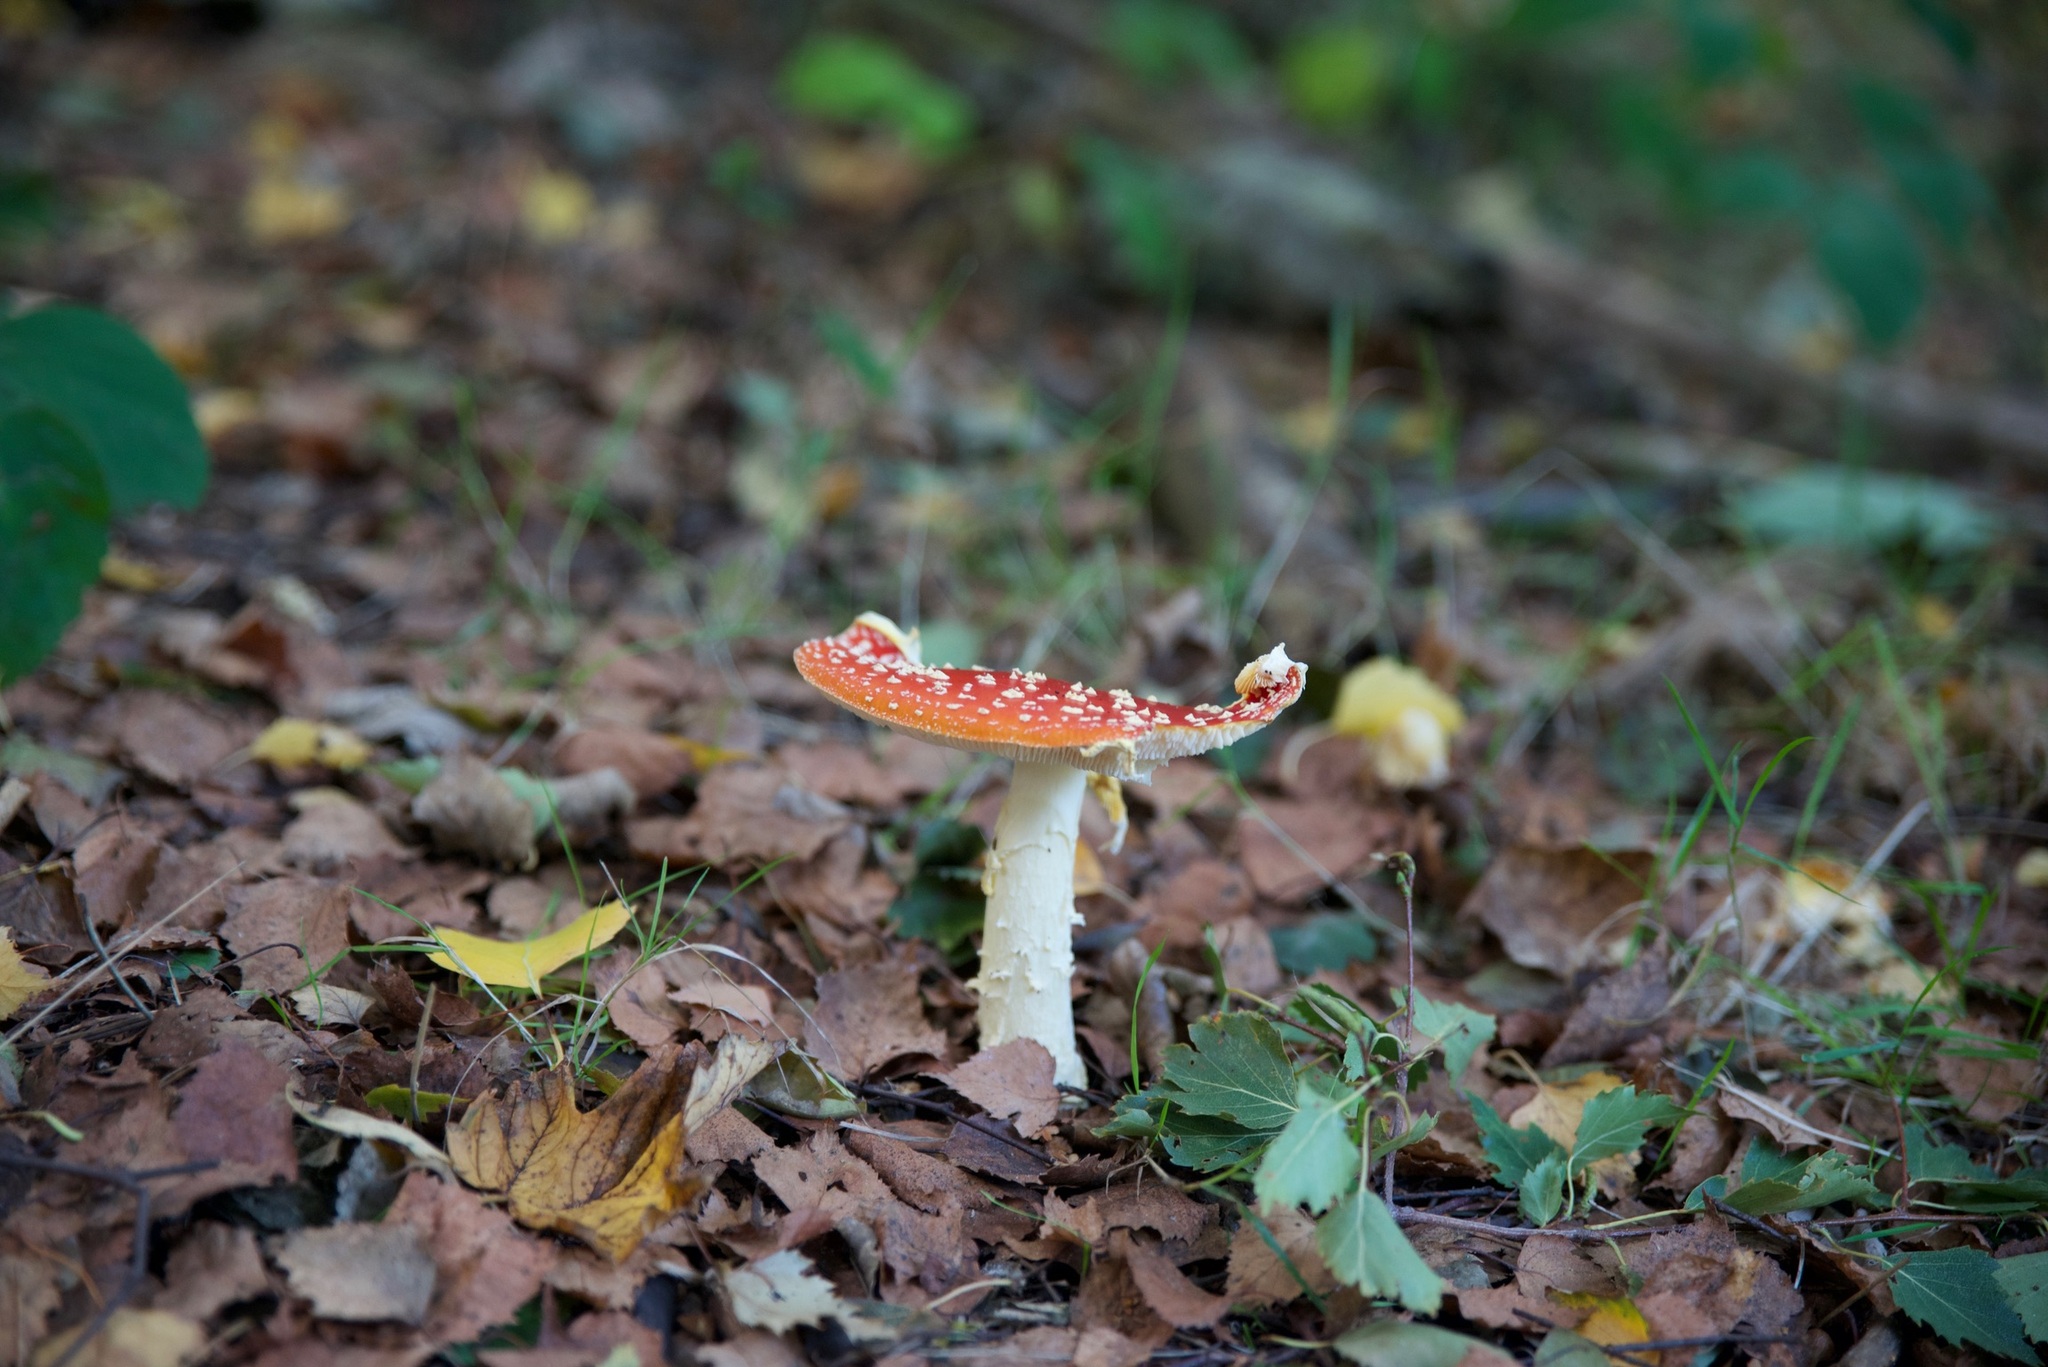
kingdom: Fungi
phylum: Basidiomycota
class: Agaricomycetes
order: Agaricales
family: Amanitaceae
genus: Amanita
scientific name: Amanita muscaria
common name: Fly agaric
